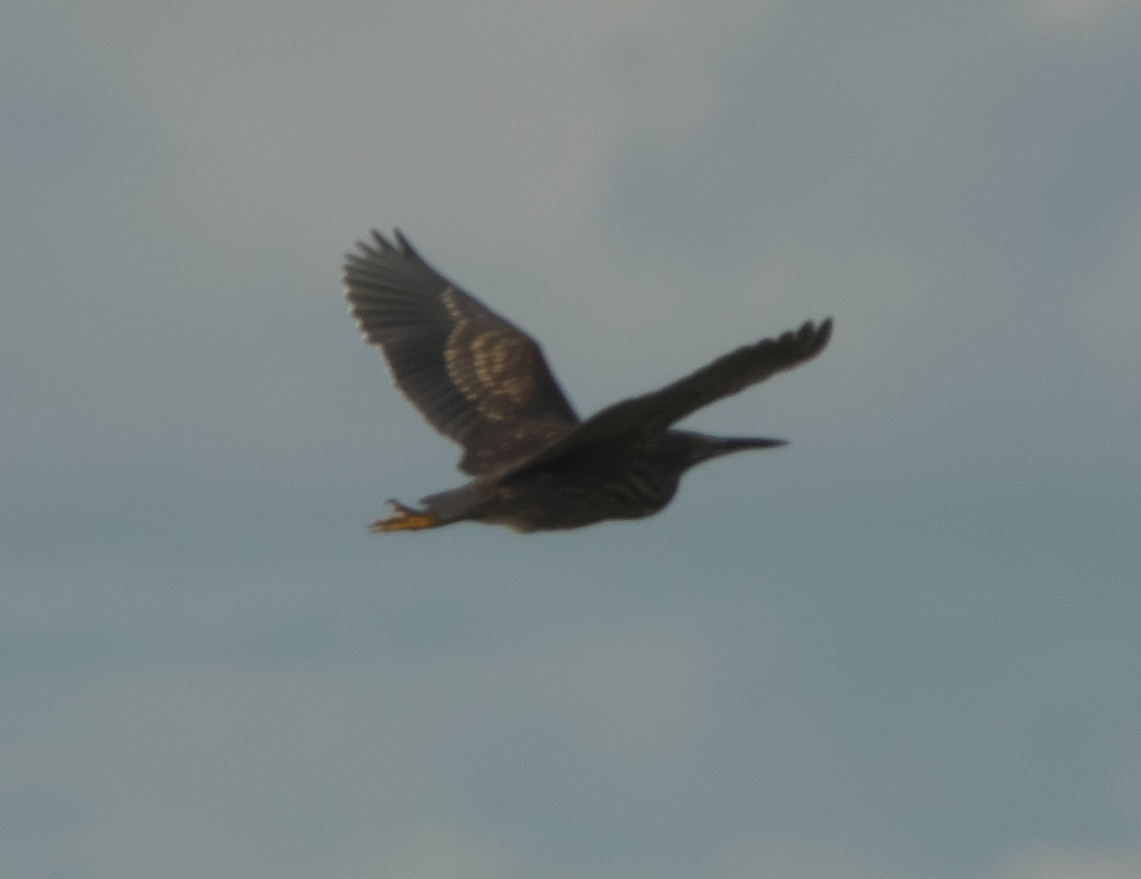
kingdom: Animalia
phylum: Chordata
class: Aves
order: Pelecaniformes
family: Ardeidae
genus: Butorides
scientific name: Butorides striata
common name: Striated heron
